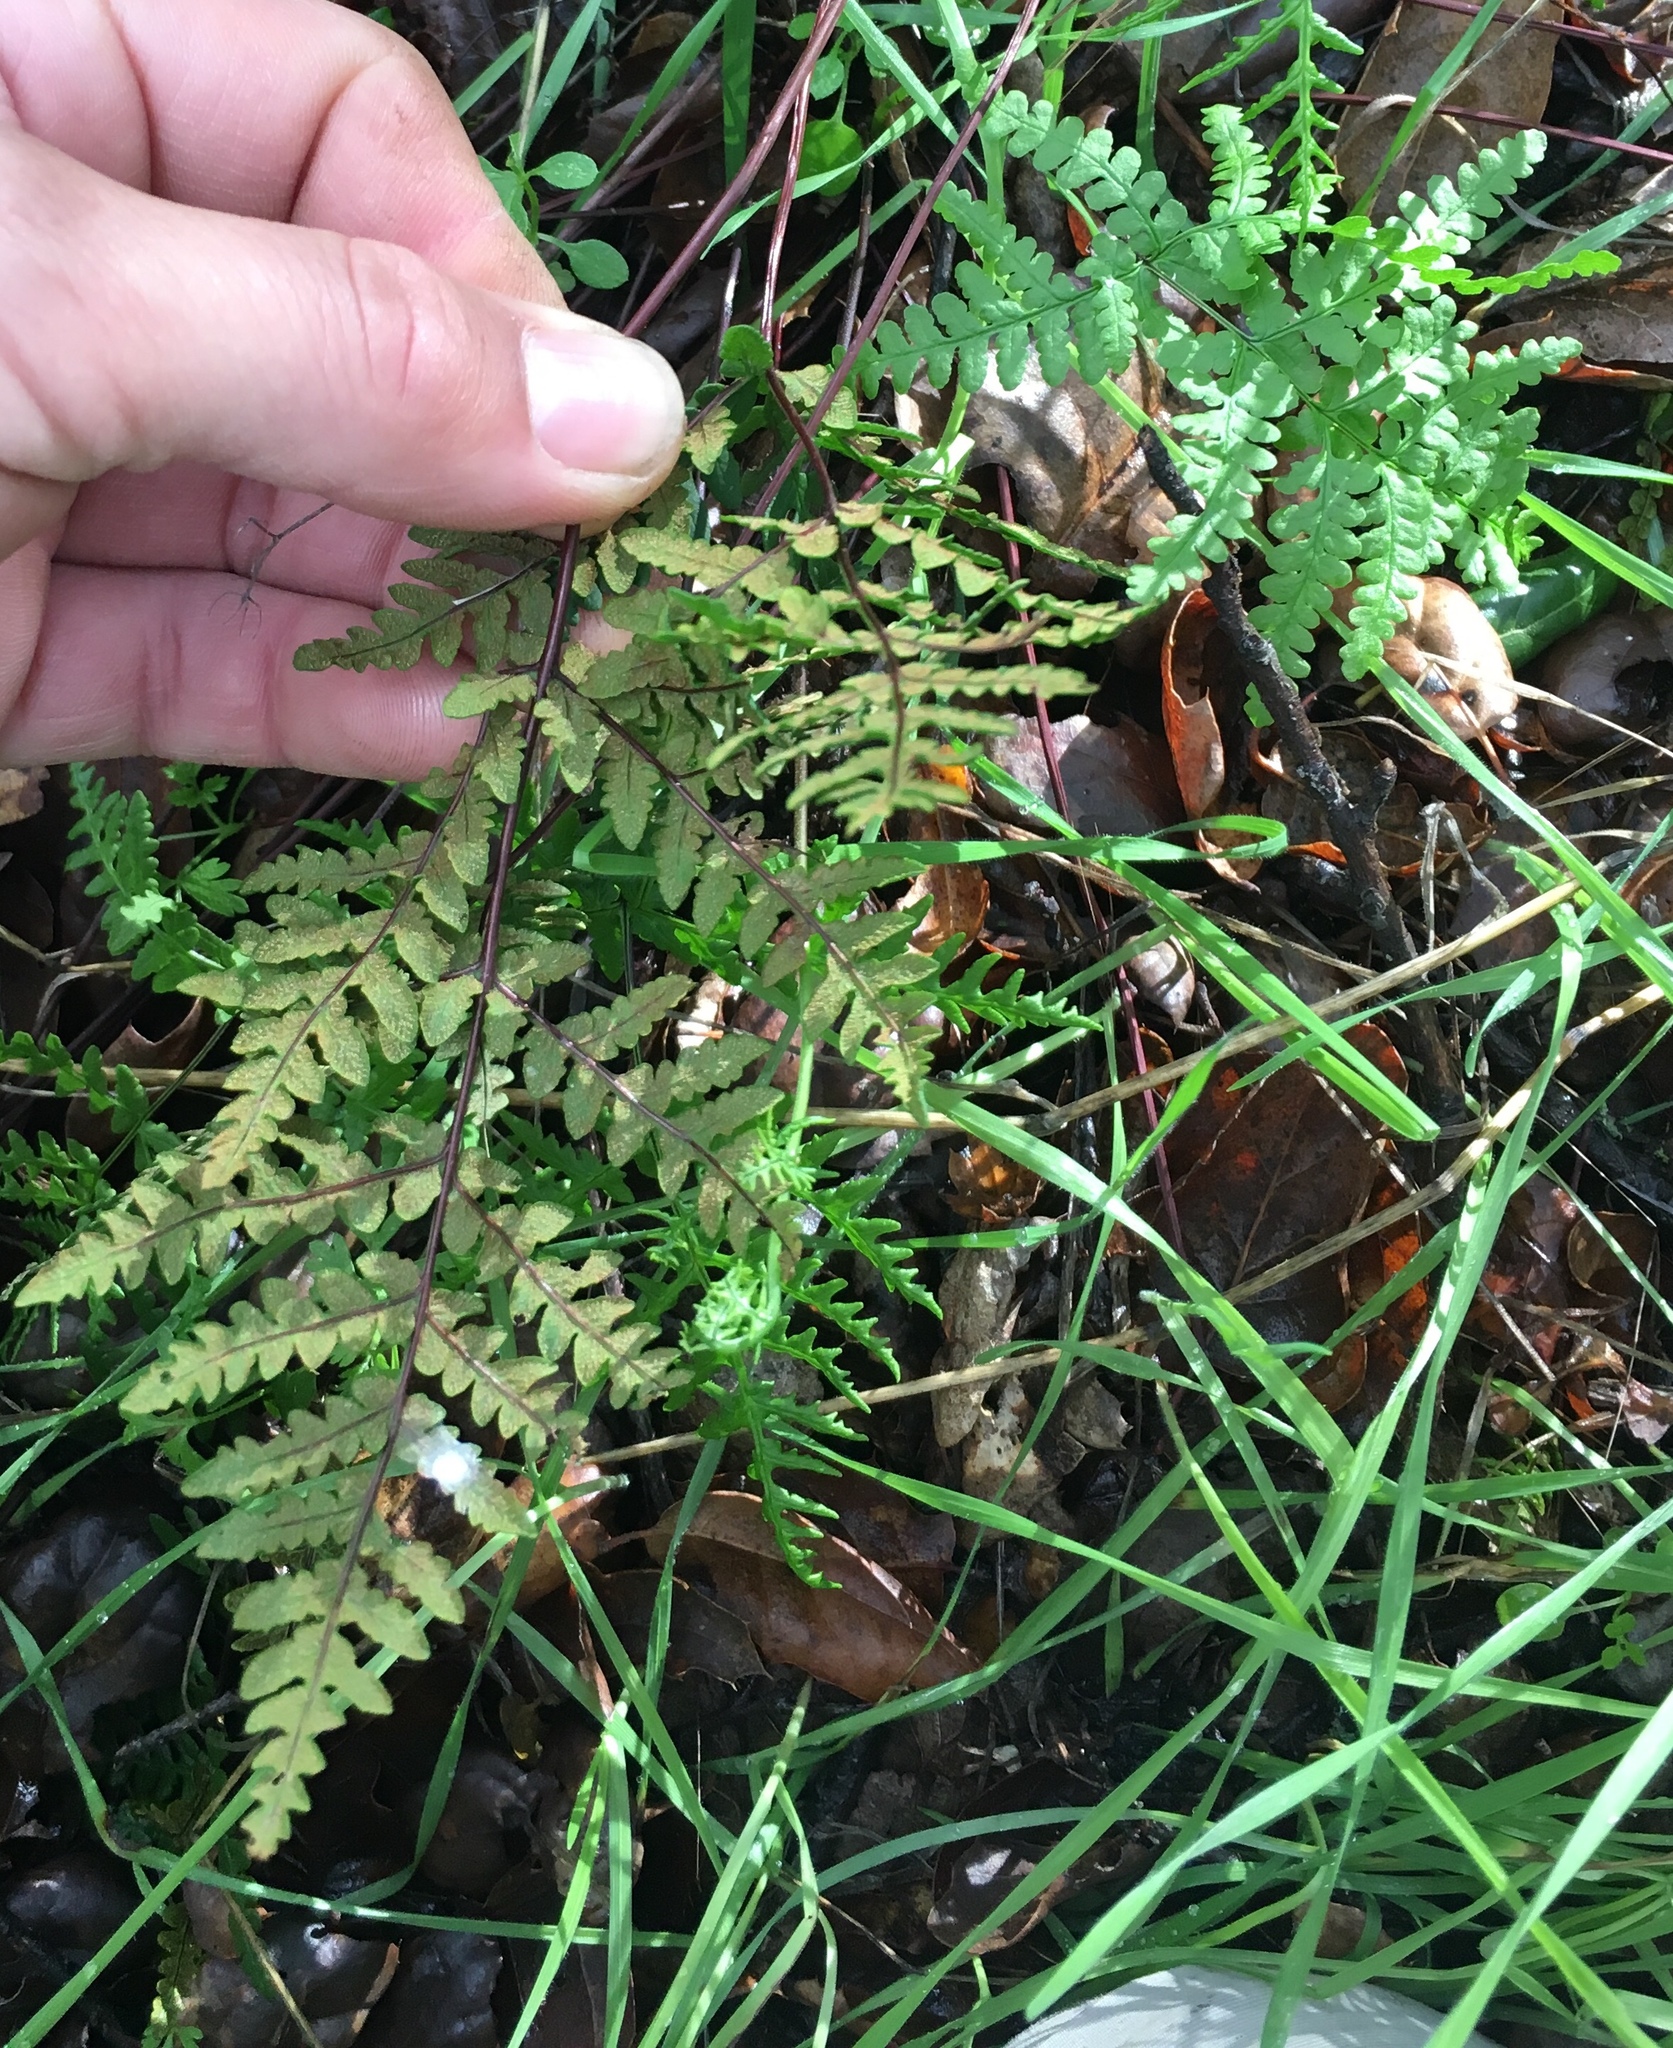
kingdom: Plantae
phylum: Tracheophyta
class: Polypodiopsida
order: Polypodiales
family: Pteridaceae
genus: Pentagramma
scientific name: Pentagramma triangularis
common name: Gold fern
